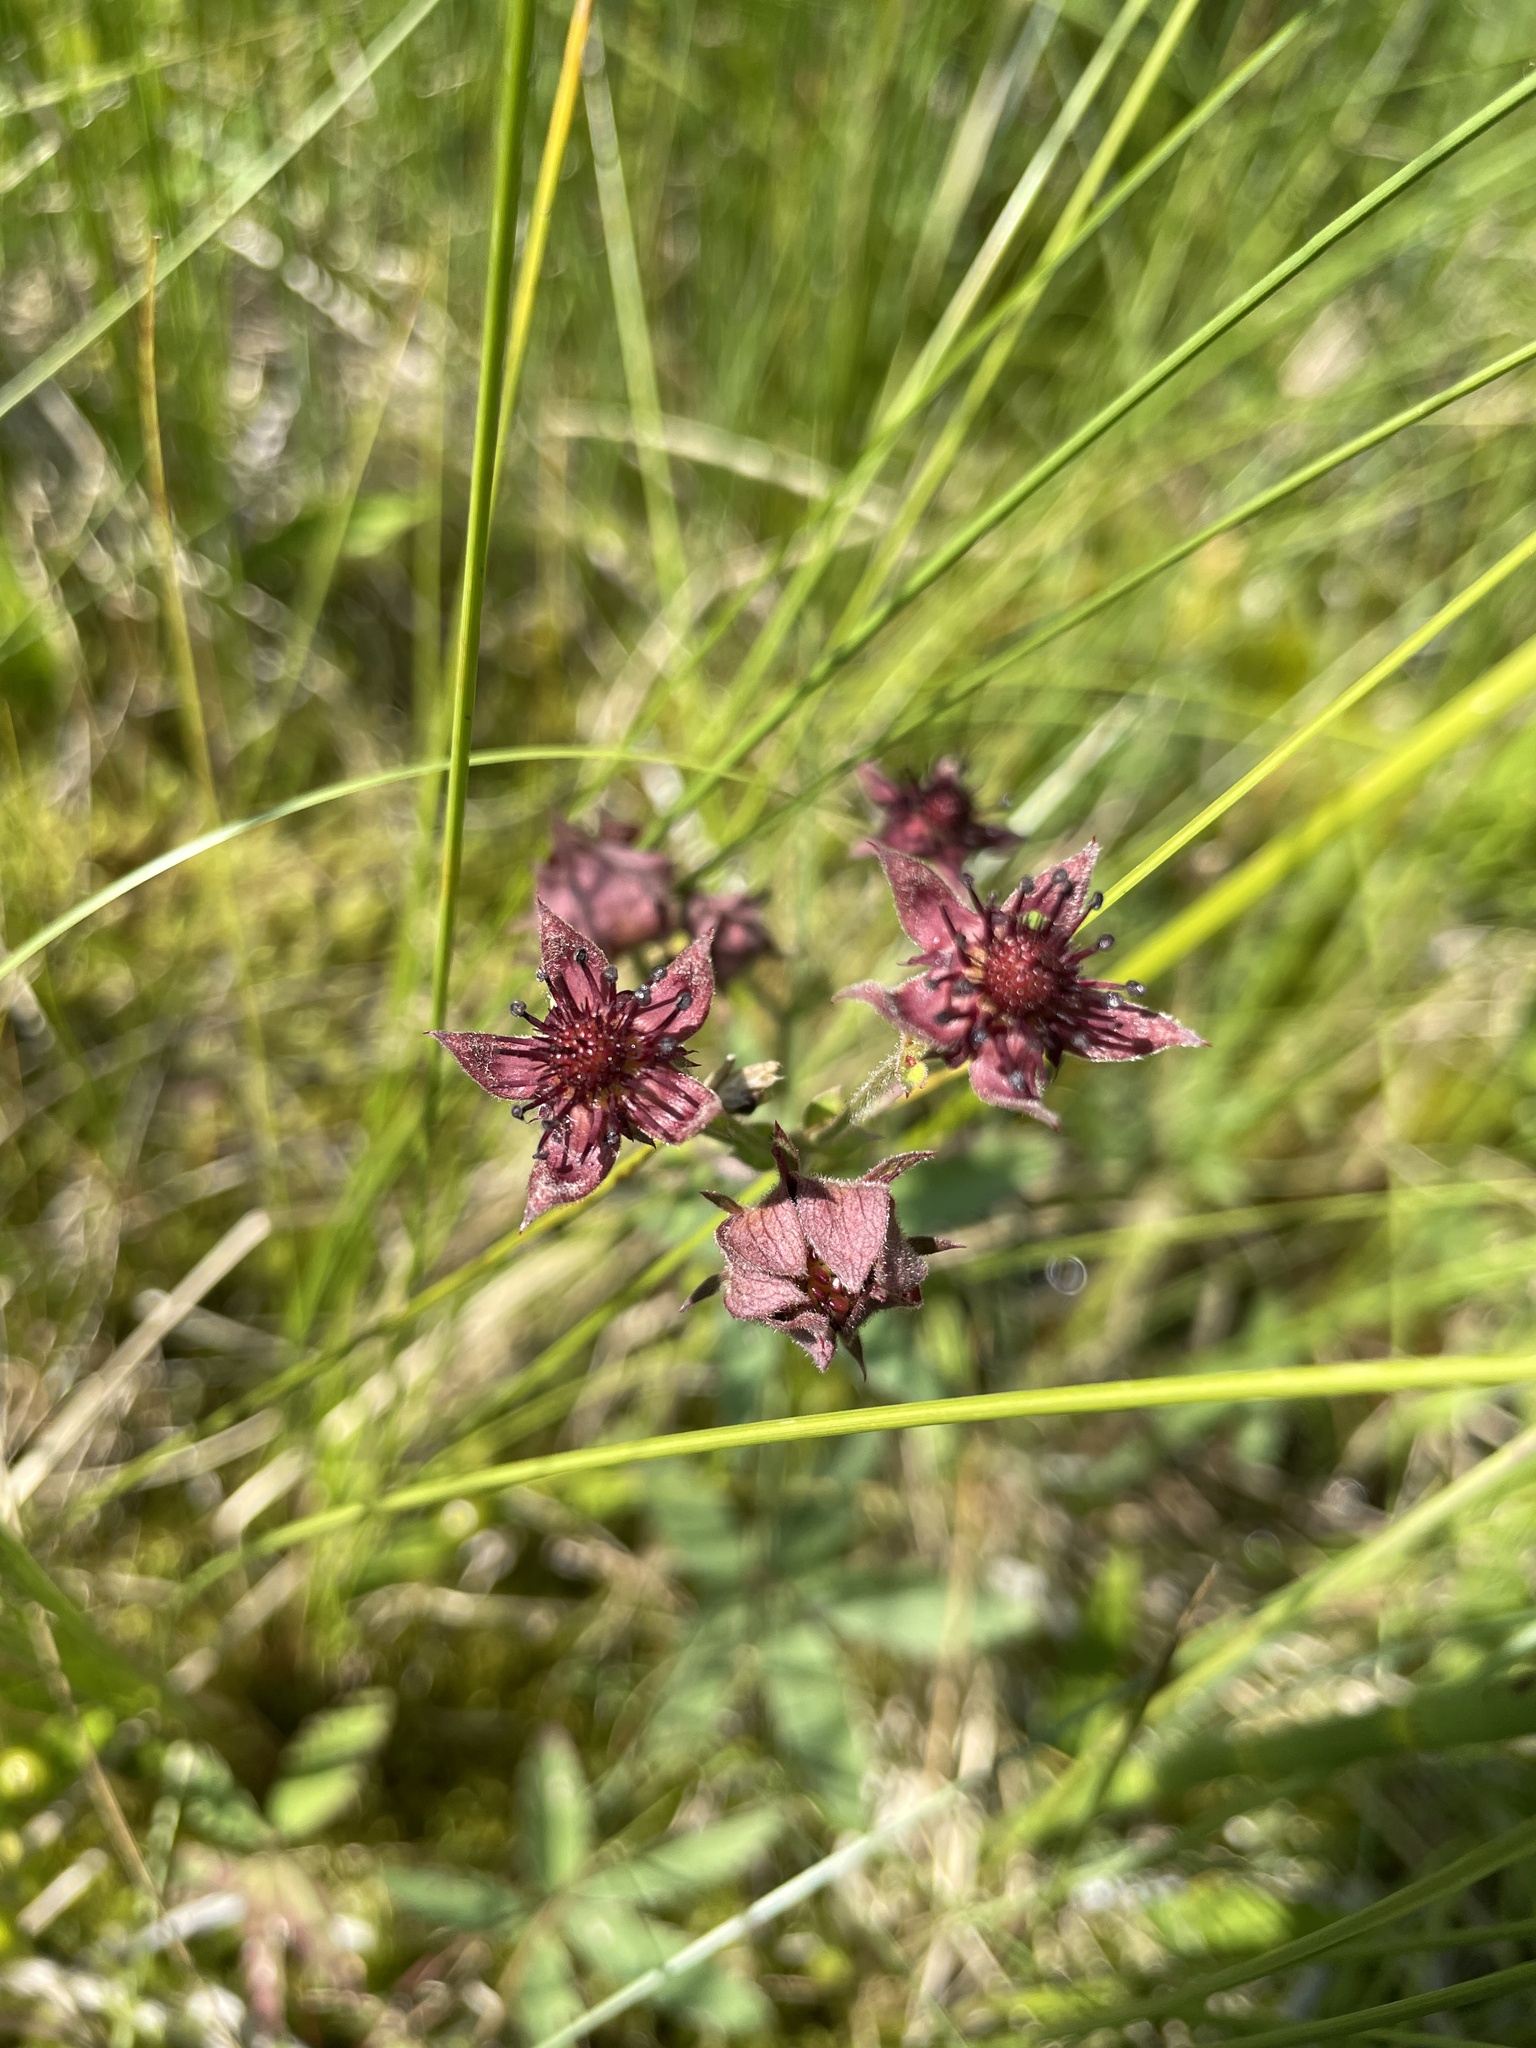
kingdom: Plantae
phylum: Tracheophyta
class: Magnoliopsida
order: Rosales
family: Rosaceae
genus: Comarum
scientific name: Comarum palustre
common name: Marsh cinquefoil
